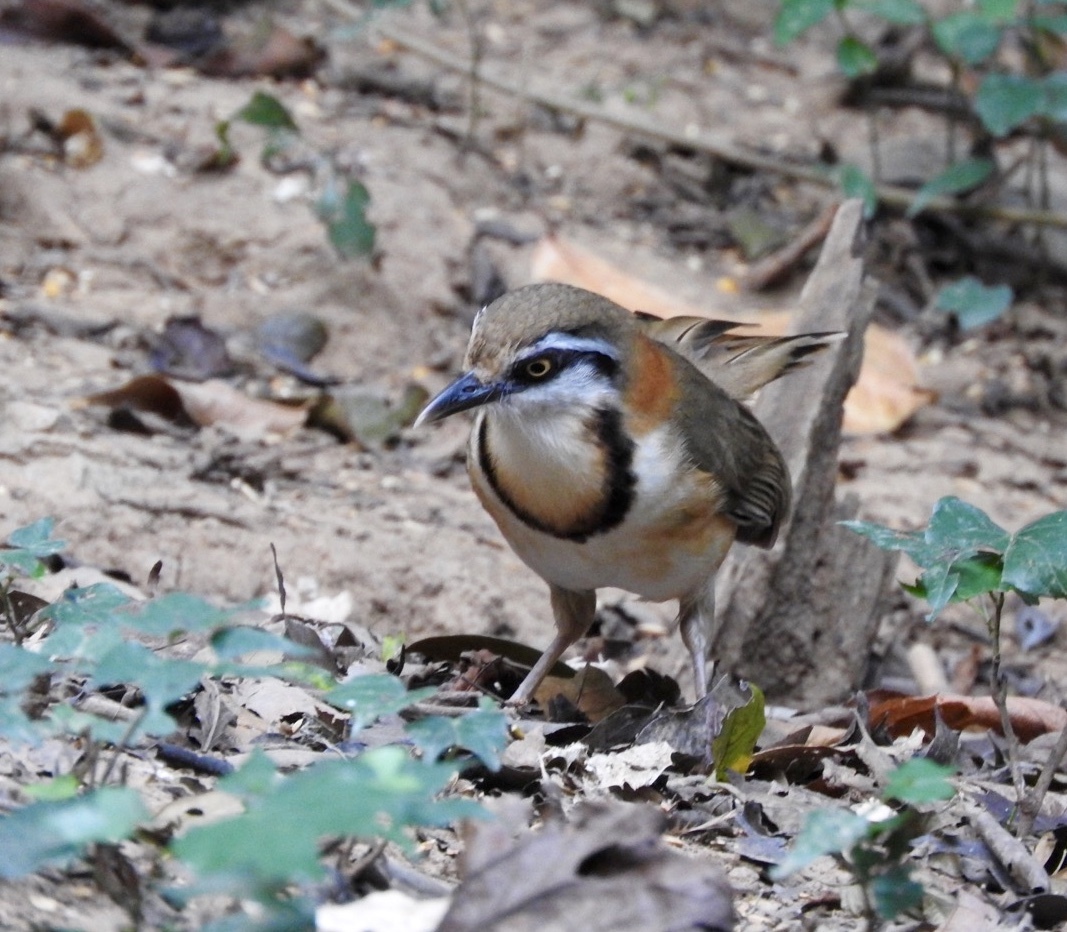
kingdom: Animalia
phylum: Chordata
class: Aves
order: Passeriformes
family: Leiothrichidae
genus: Garrulax
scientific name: Garrulax monileger
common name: Lesser necklaced laughingthrush
